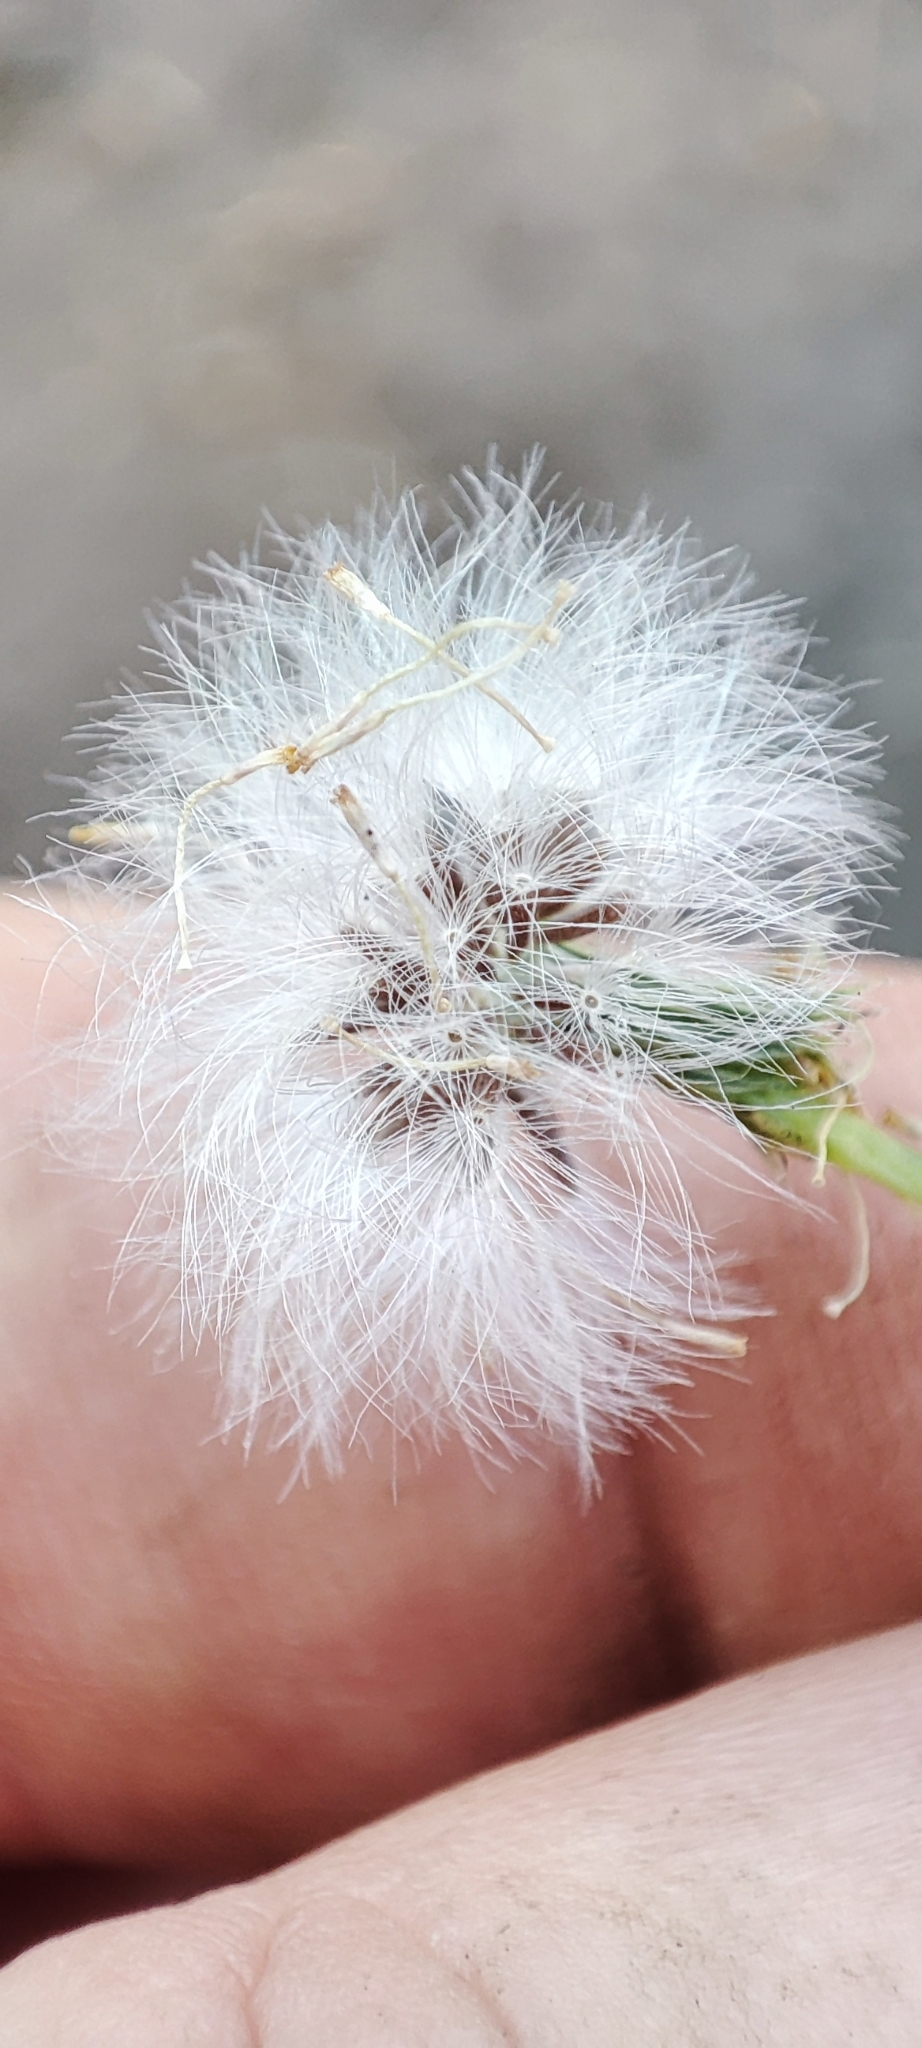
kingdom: Plantae
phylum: Tracheophyta
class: Magnoliopsida
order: Asterales
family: Asteraceae
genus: Senecio
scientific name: Senecio vulgaris
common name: Old-man-in-the-spring
